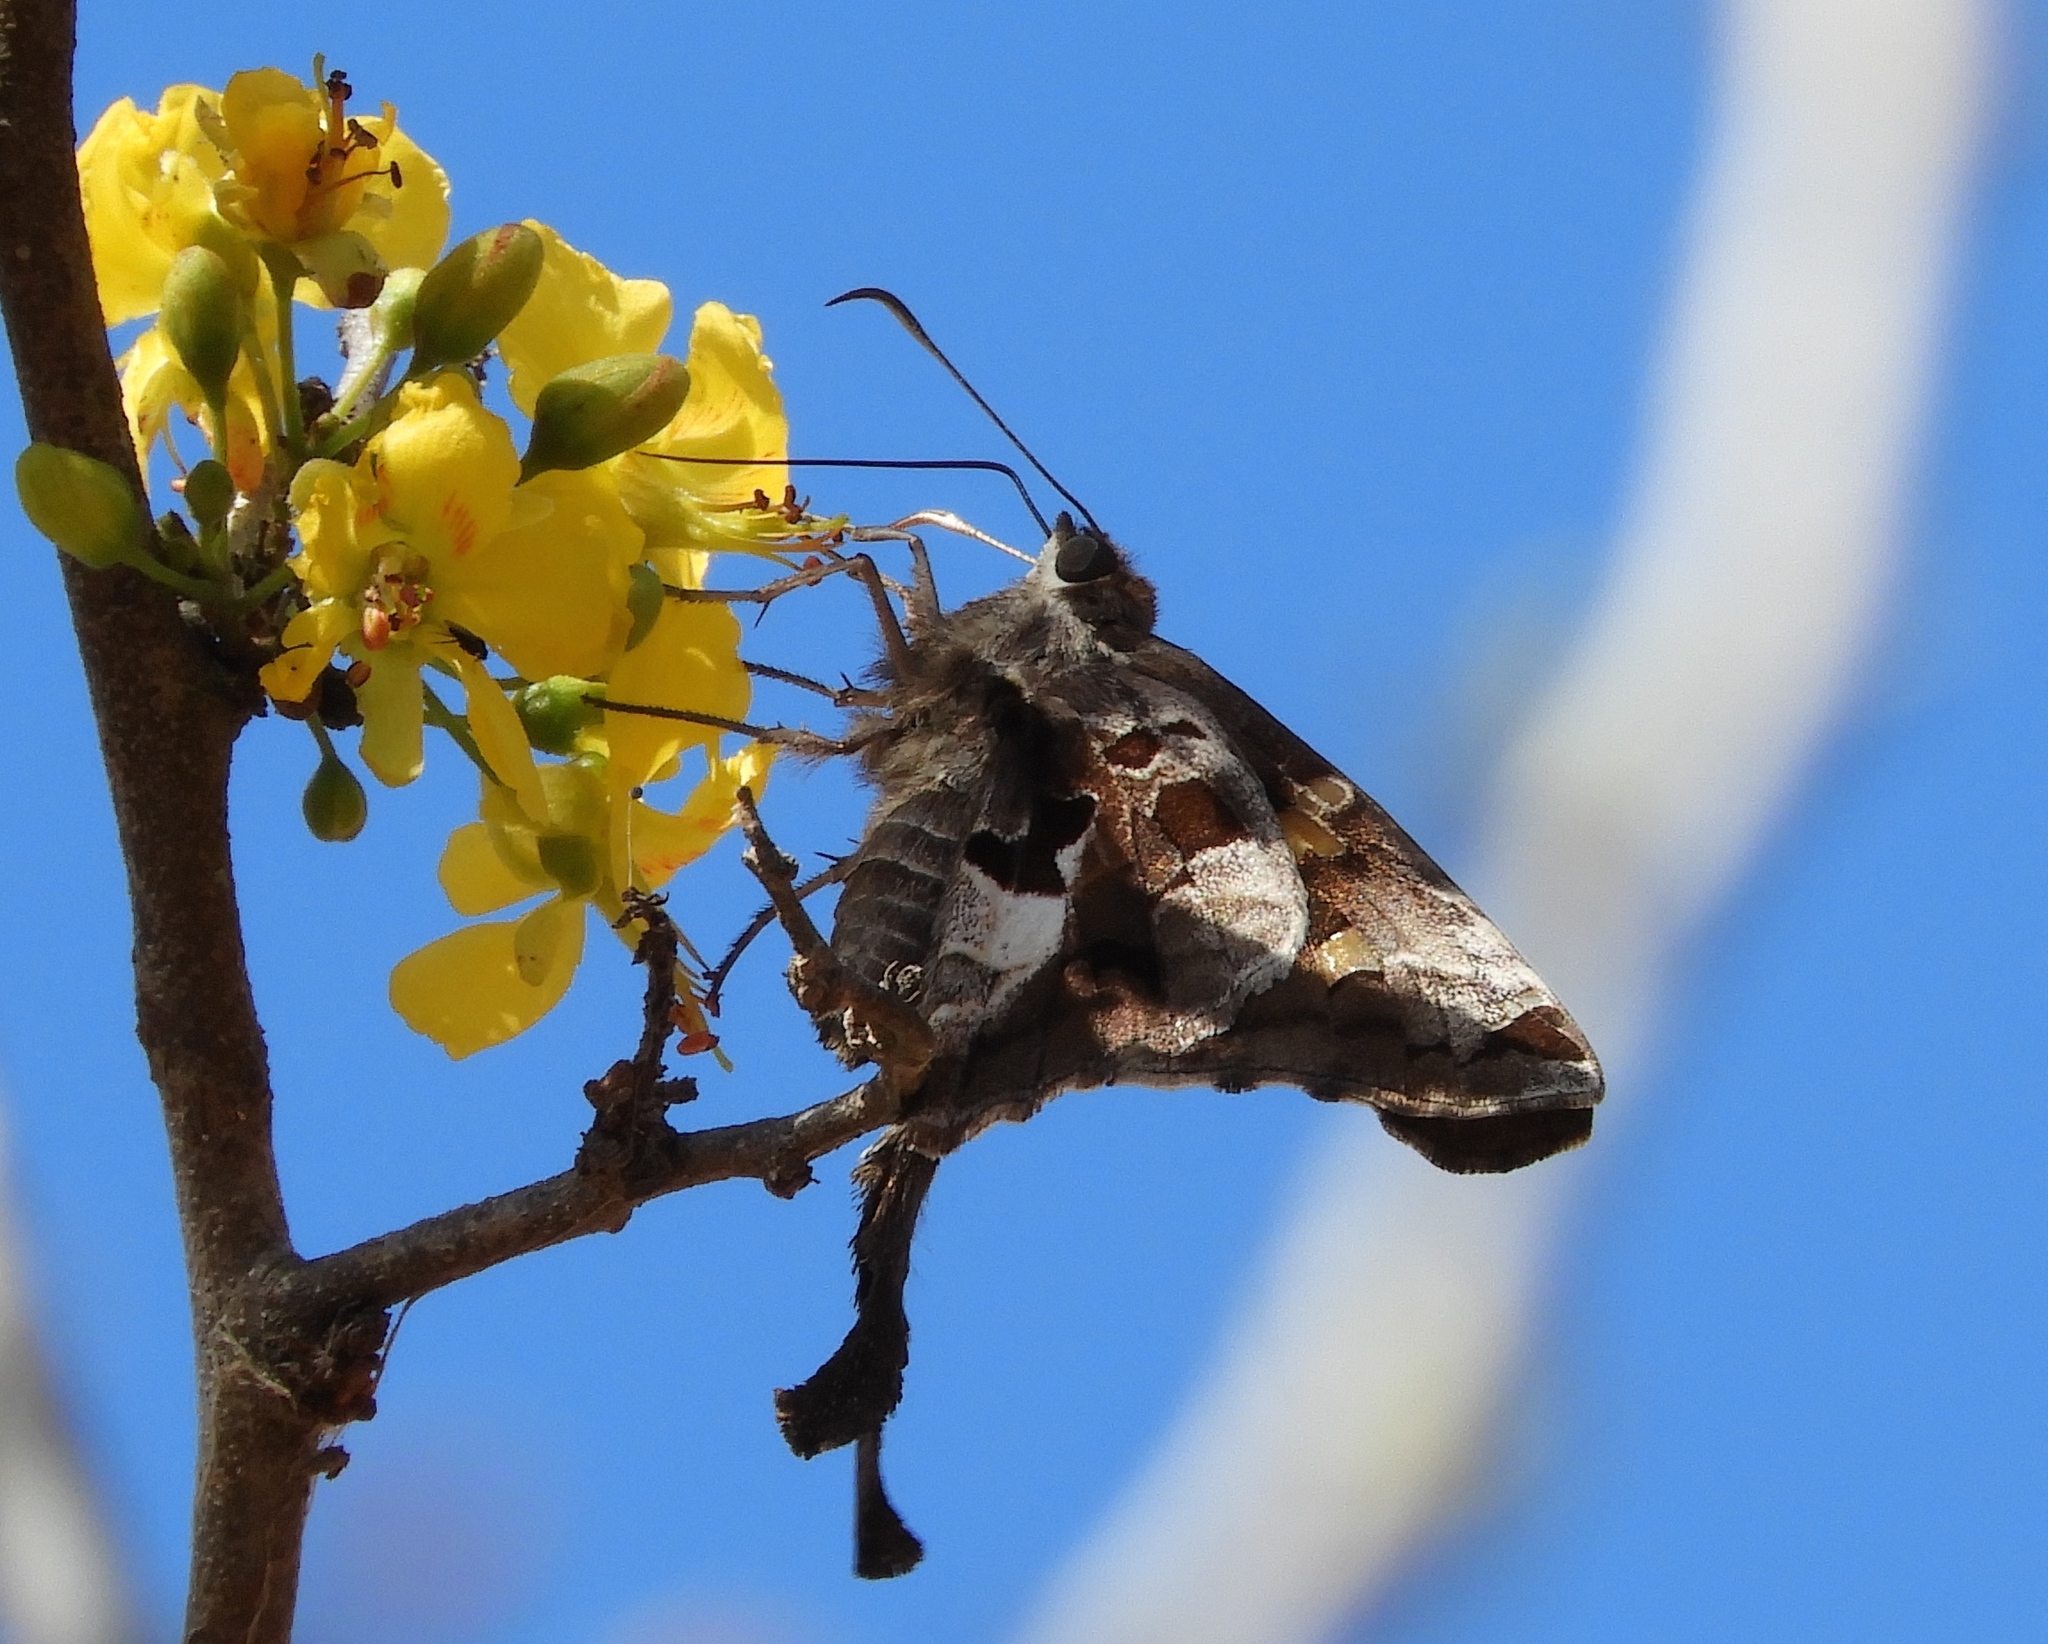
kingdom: Animalia
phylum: Arthropoda
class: Insecta
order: Lepidoptera
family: Hesperiidae
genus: Chioides
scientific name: Chioides zilpa
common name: Zilpa longtail
